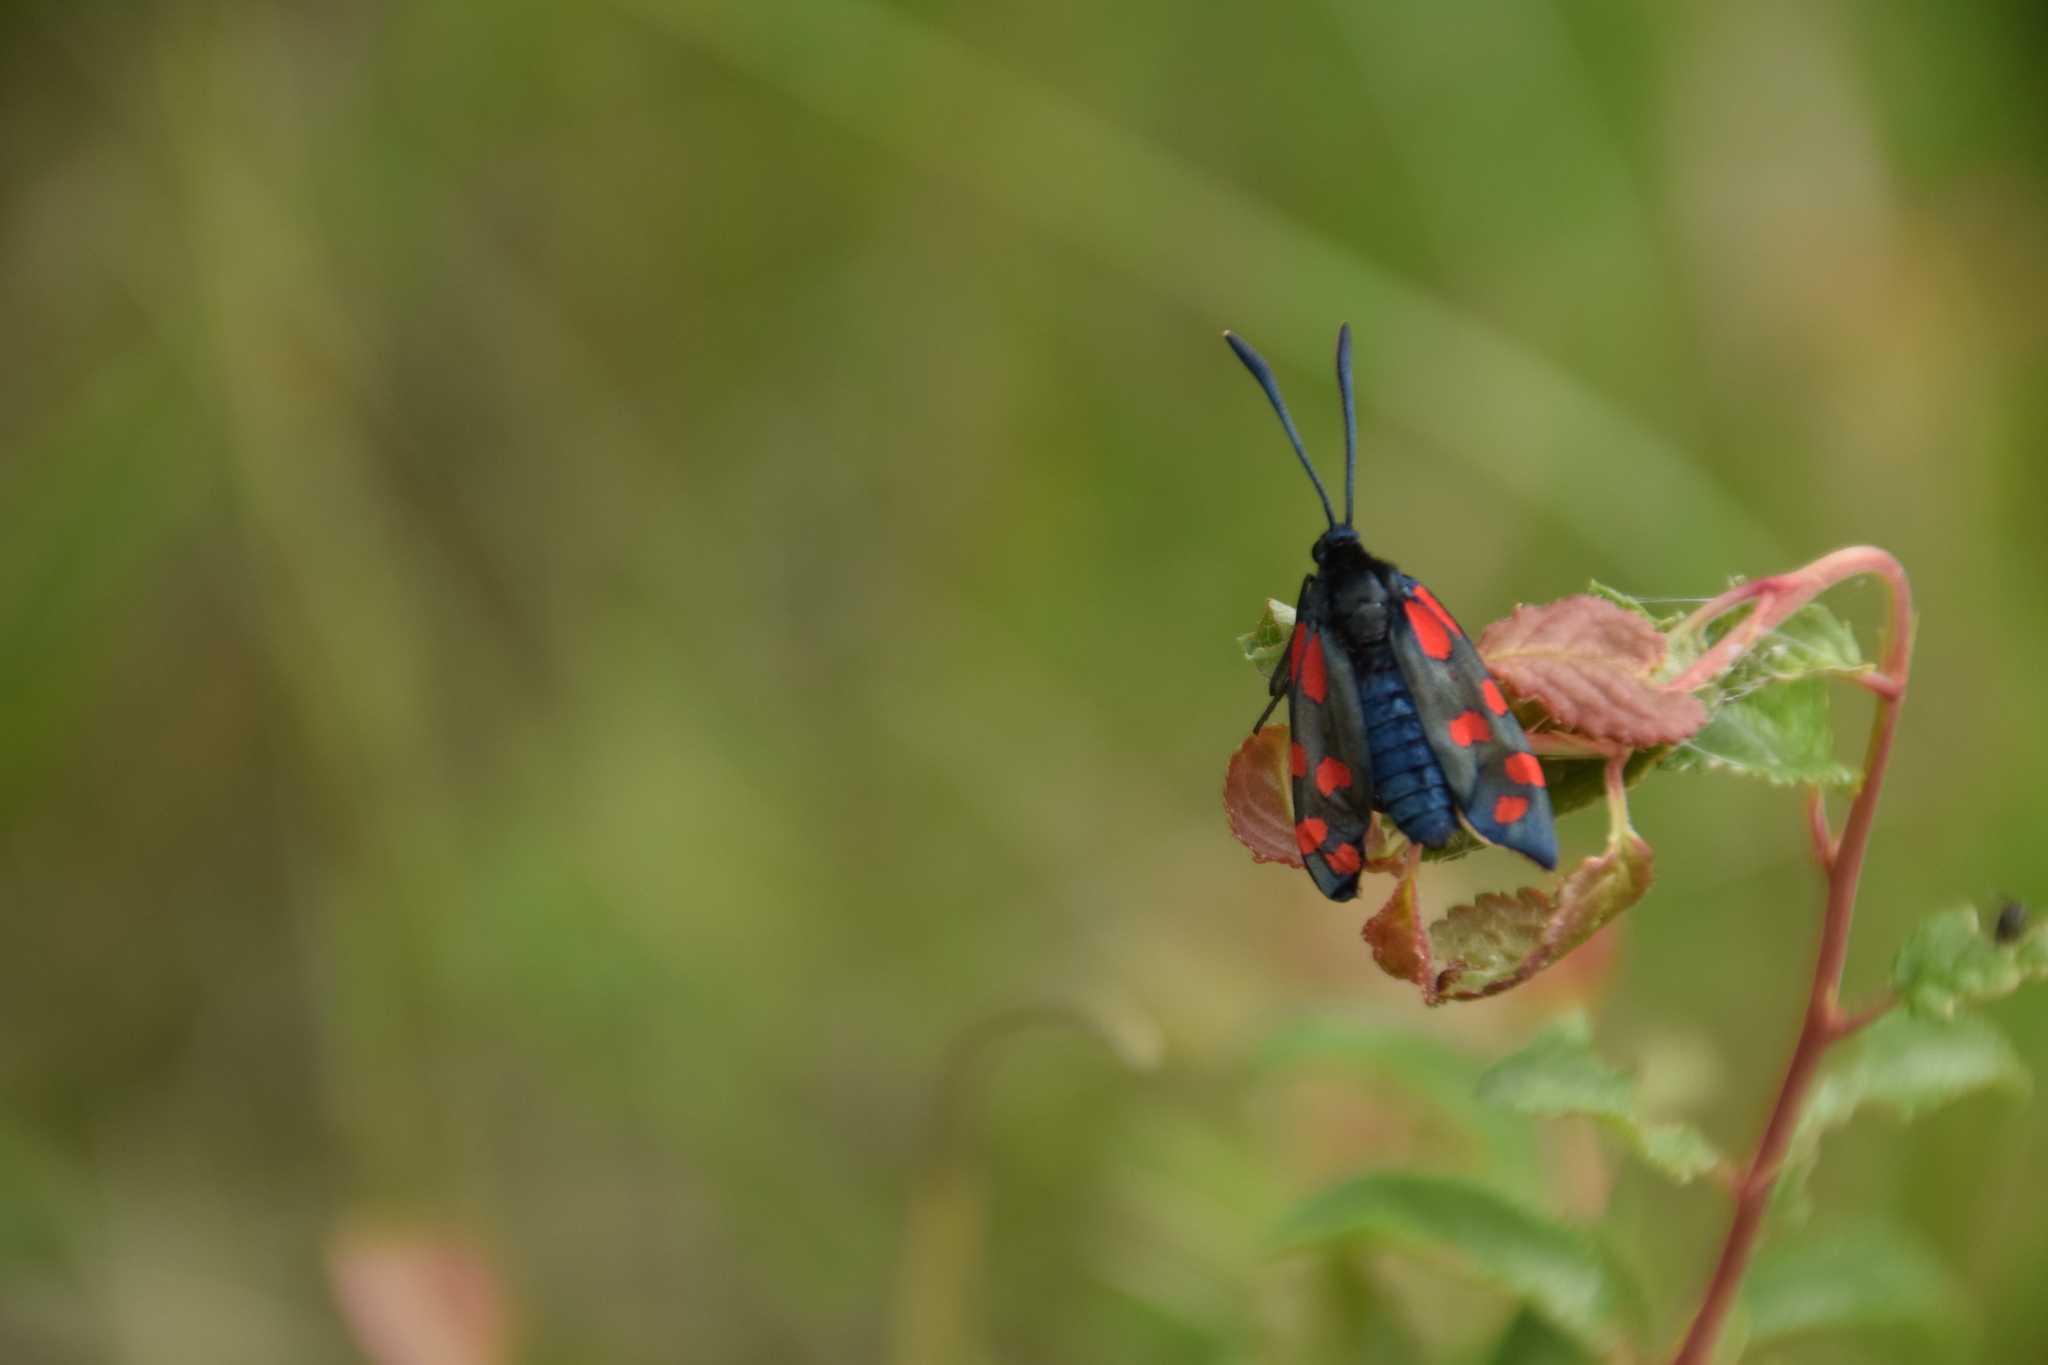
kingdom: Animalia
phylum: Arthropoda
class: Insecta
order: Lepidoptera
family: Zygaenidae
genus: Zygaena
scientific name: Zygaena transalpina
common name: Southern six spot burnet
